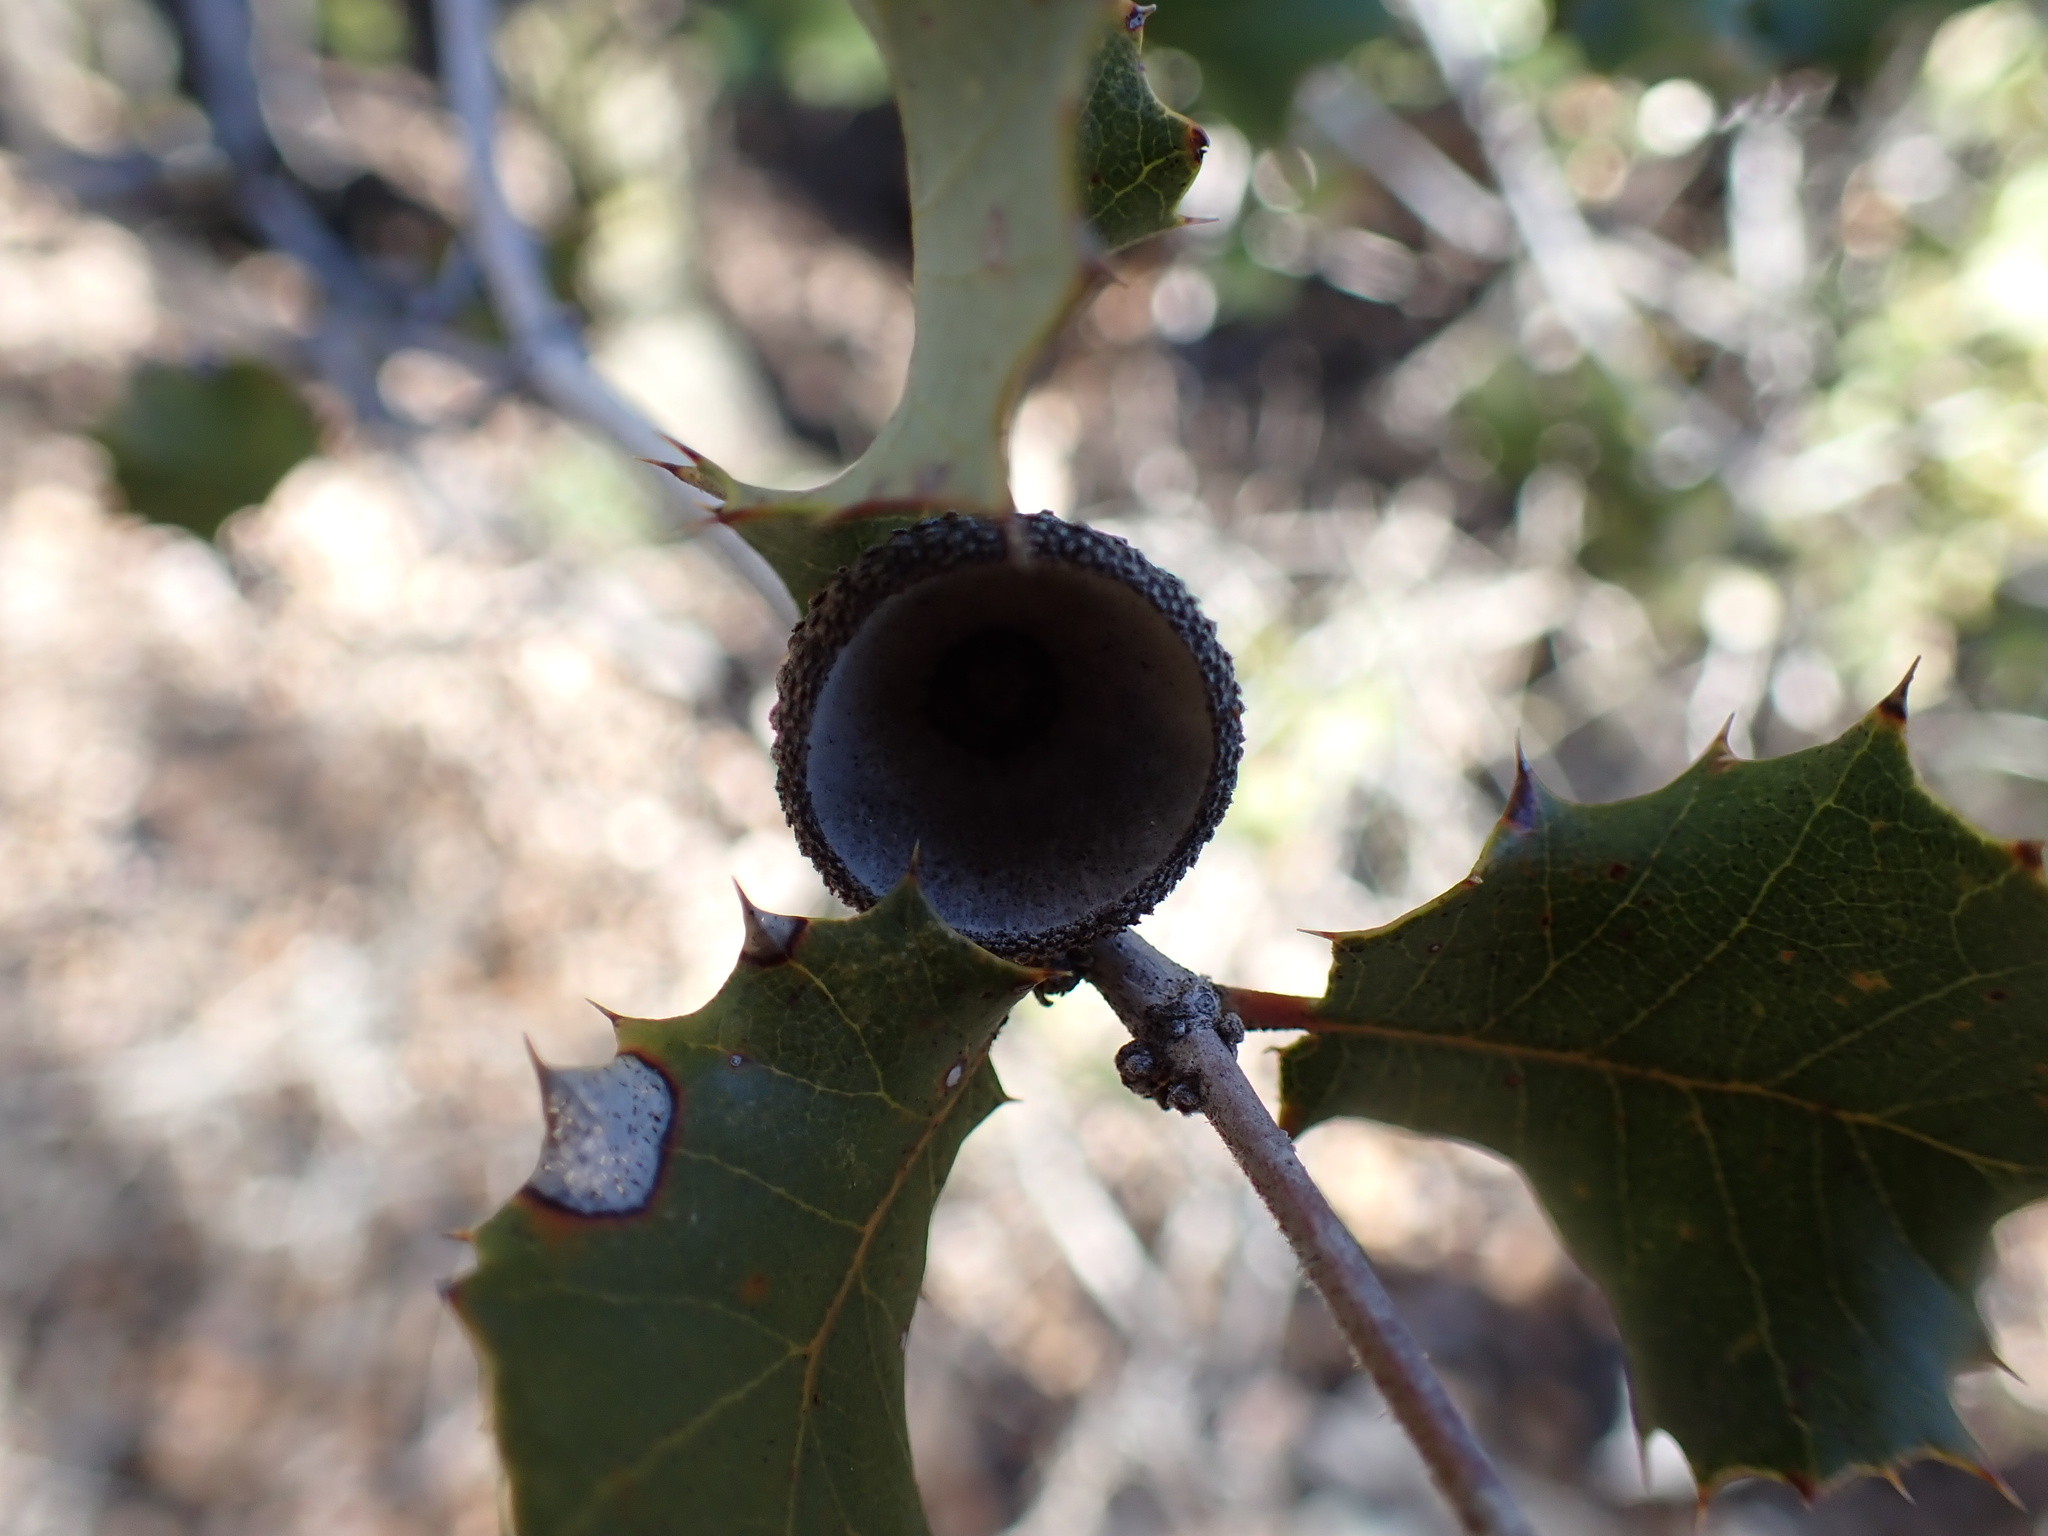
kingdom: Plantae
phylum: Tracheophyta
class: Magnoliopsida
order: Fagales
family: Fagaceae
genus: Quercus
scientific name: Quercus palmeri
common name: Dunn oak
